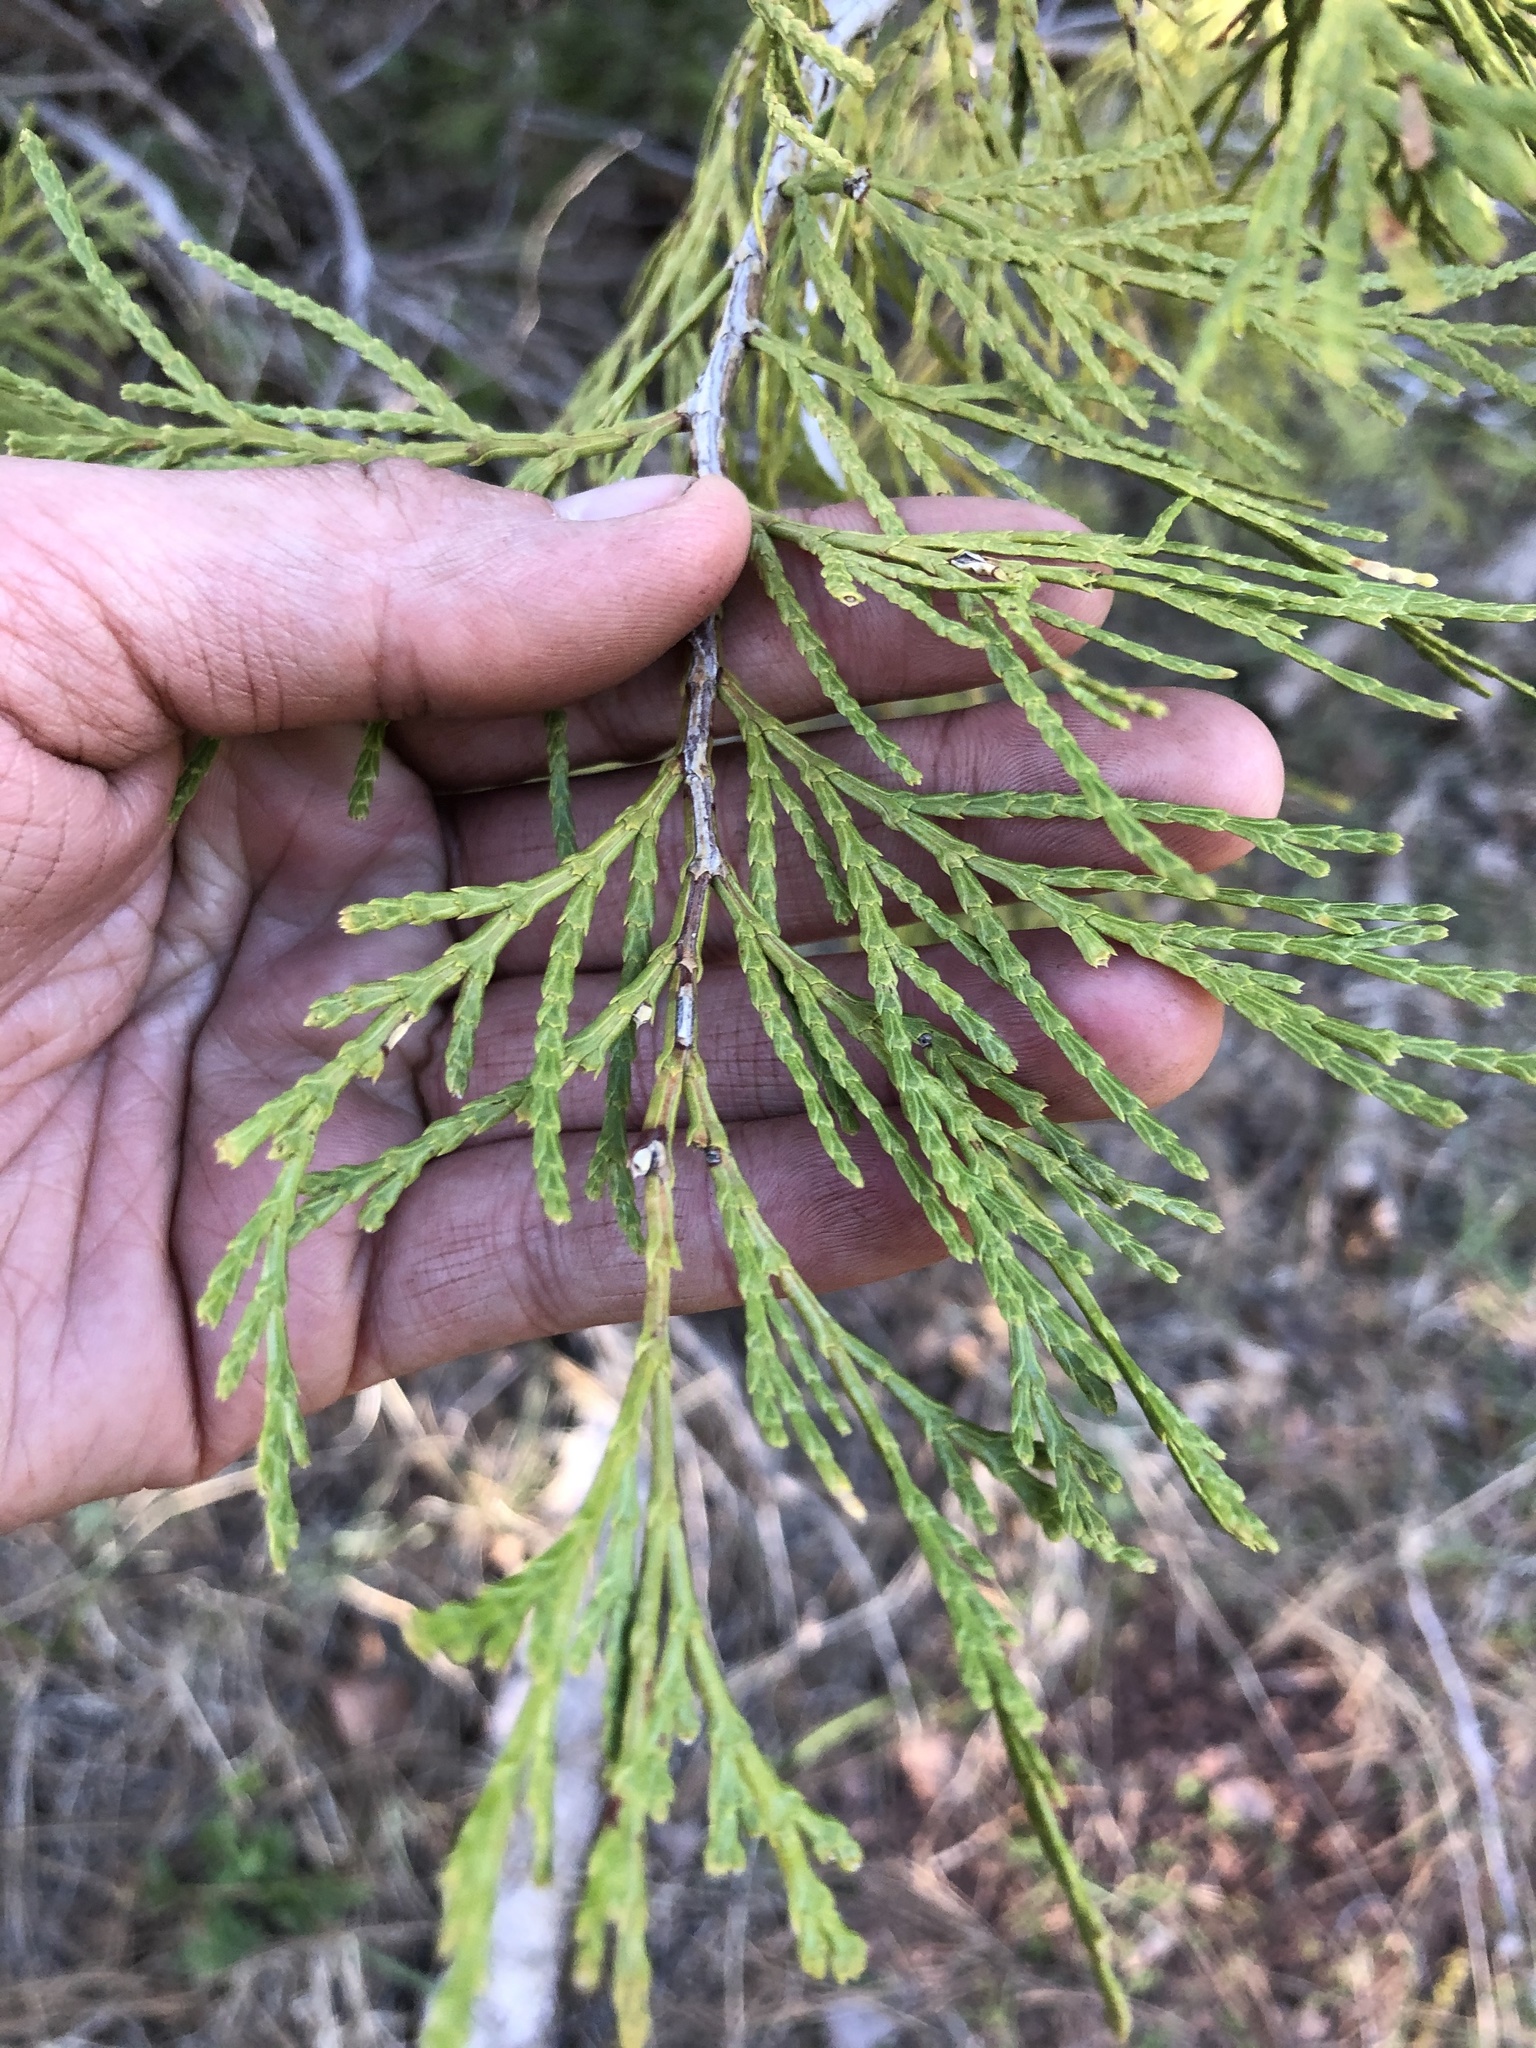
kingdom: Plantae
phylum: Tracheophyta
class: Pinopsida
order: Pinales
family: Cupressaceae
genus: Calocedrus
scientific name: Calocedrus decurrens
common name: Californian incense-cedar
